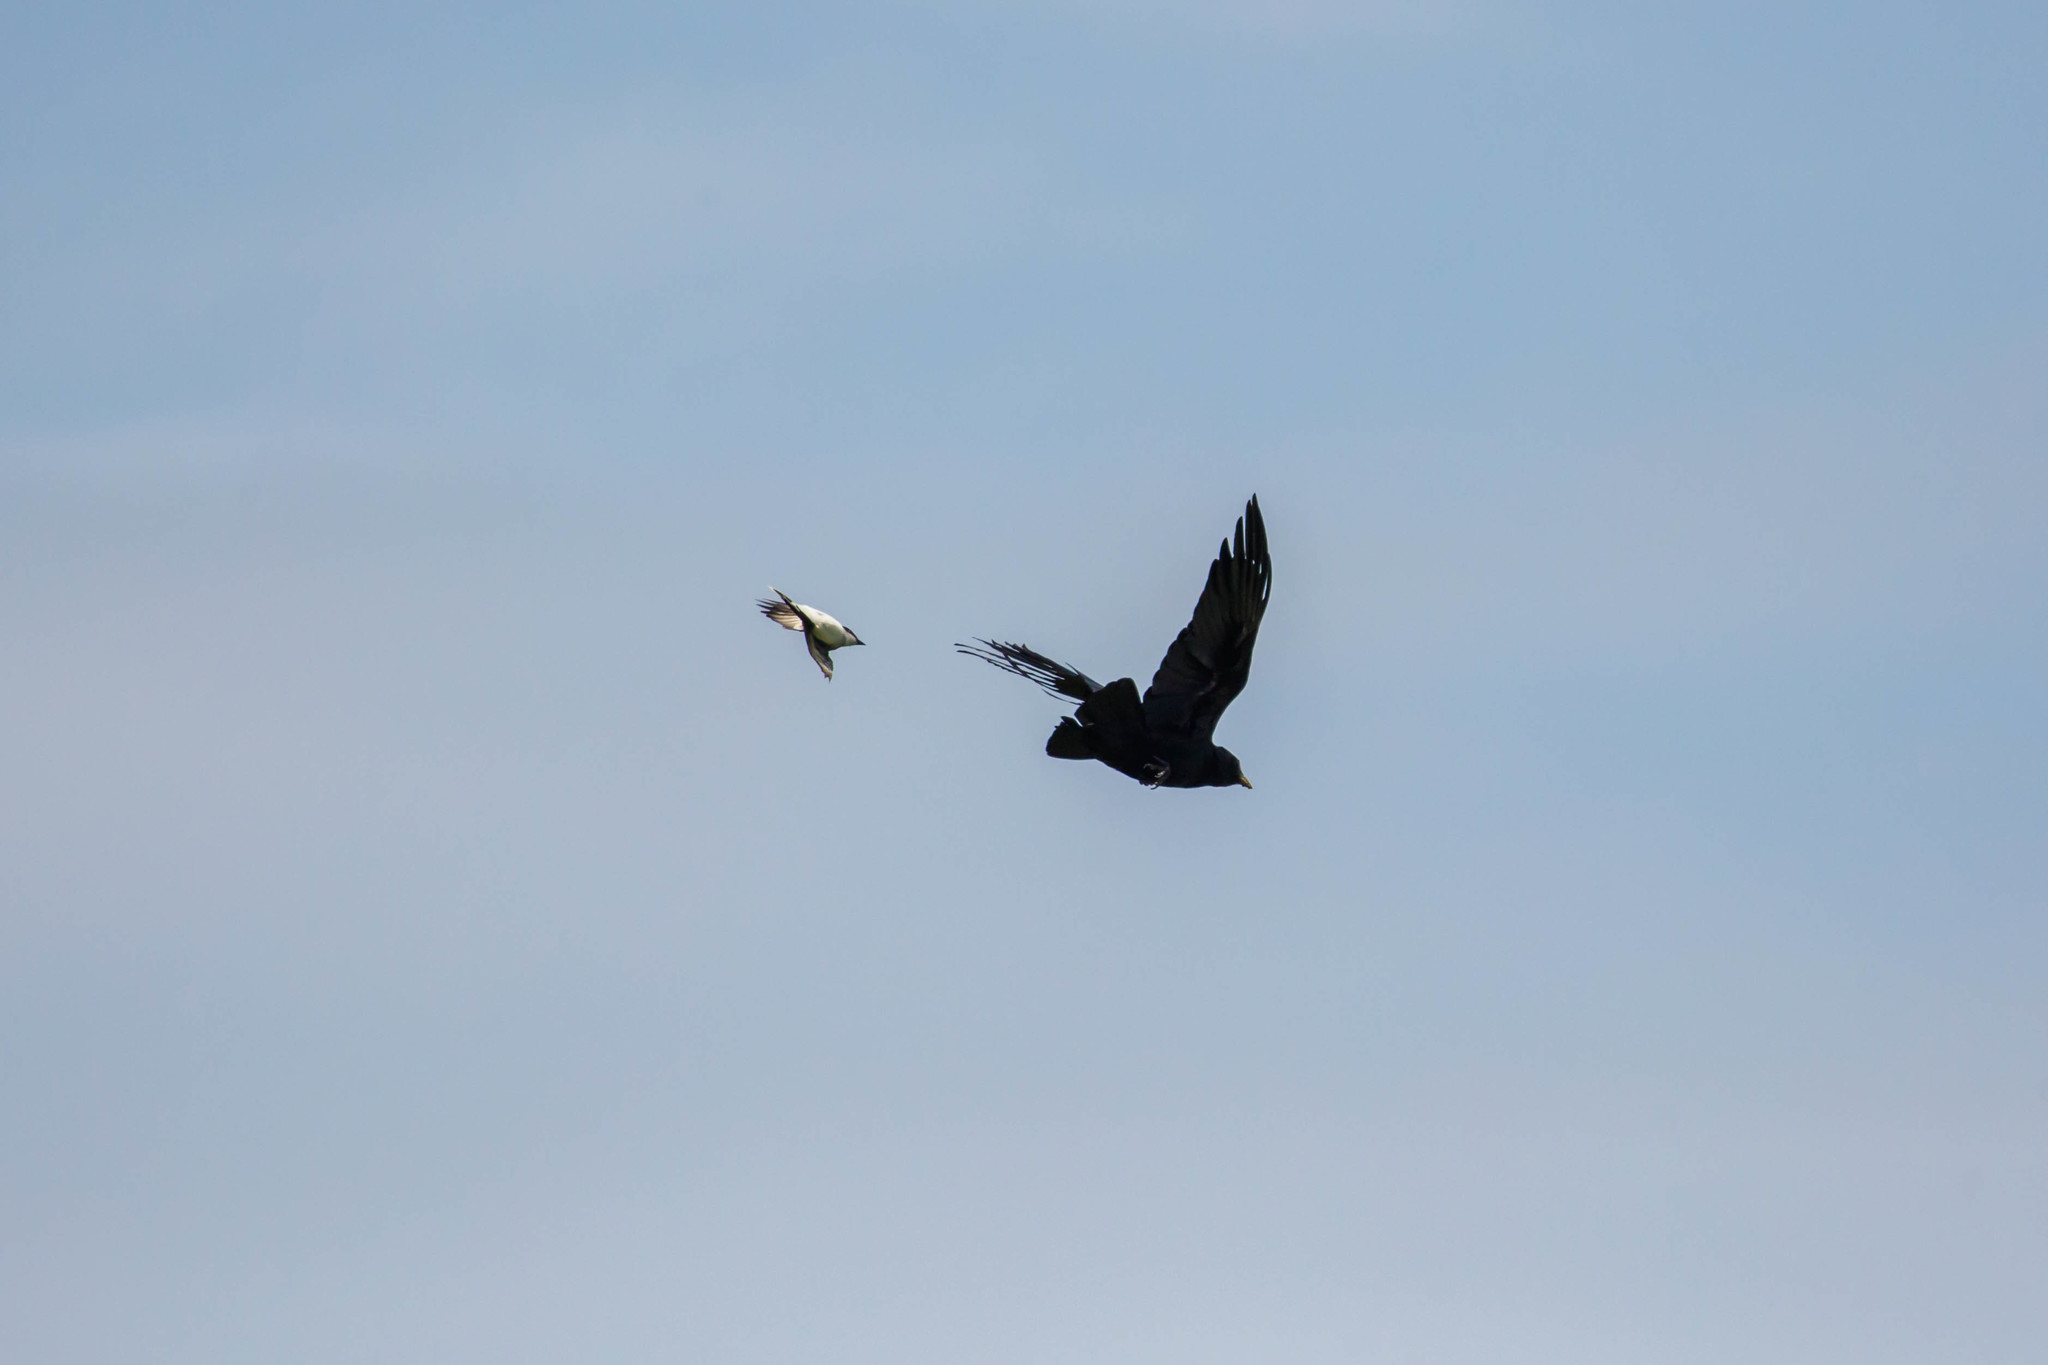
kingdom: Animalia
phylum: Chordata
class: Aves
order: Passeriformes
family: Tyrannidae
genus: Tyrannus
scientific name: Tyrannus tyrannus
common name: Eastern kingbird
